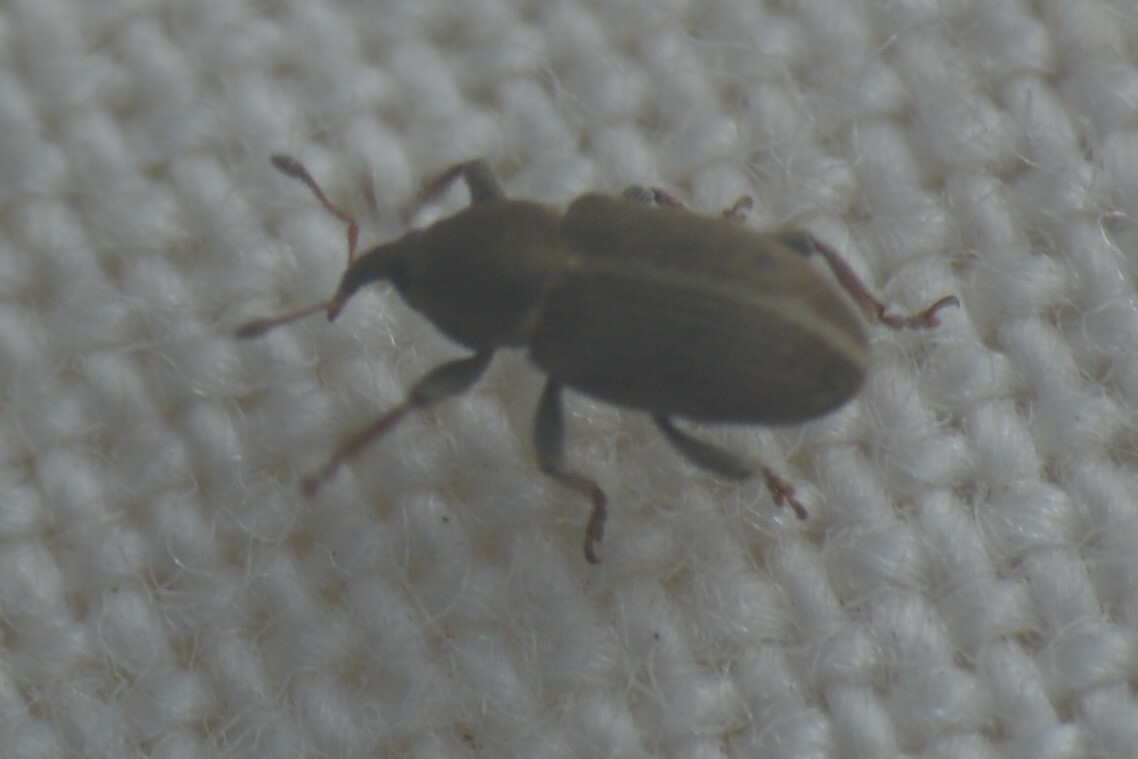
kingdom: Animalia
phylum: Arthropoda
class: Insecta
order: Coleoptera
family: Curculionidae
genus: Tychius
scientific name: Tychius meliloti
